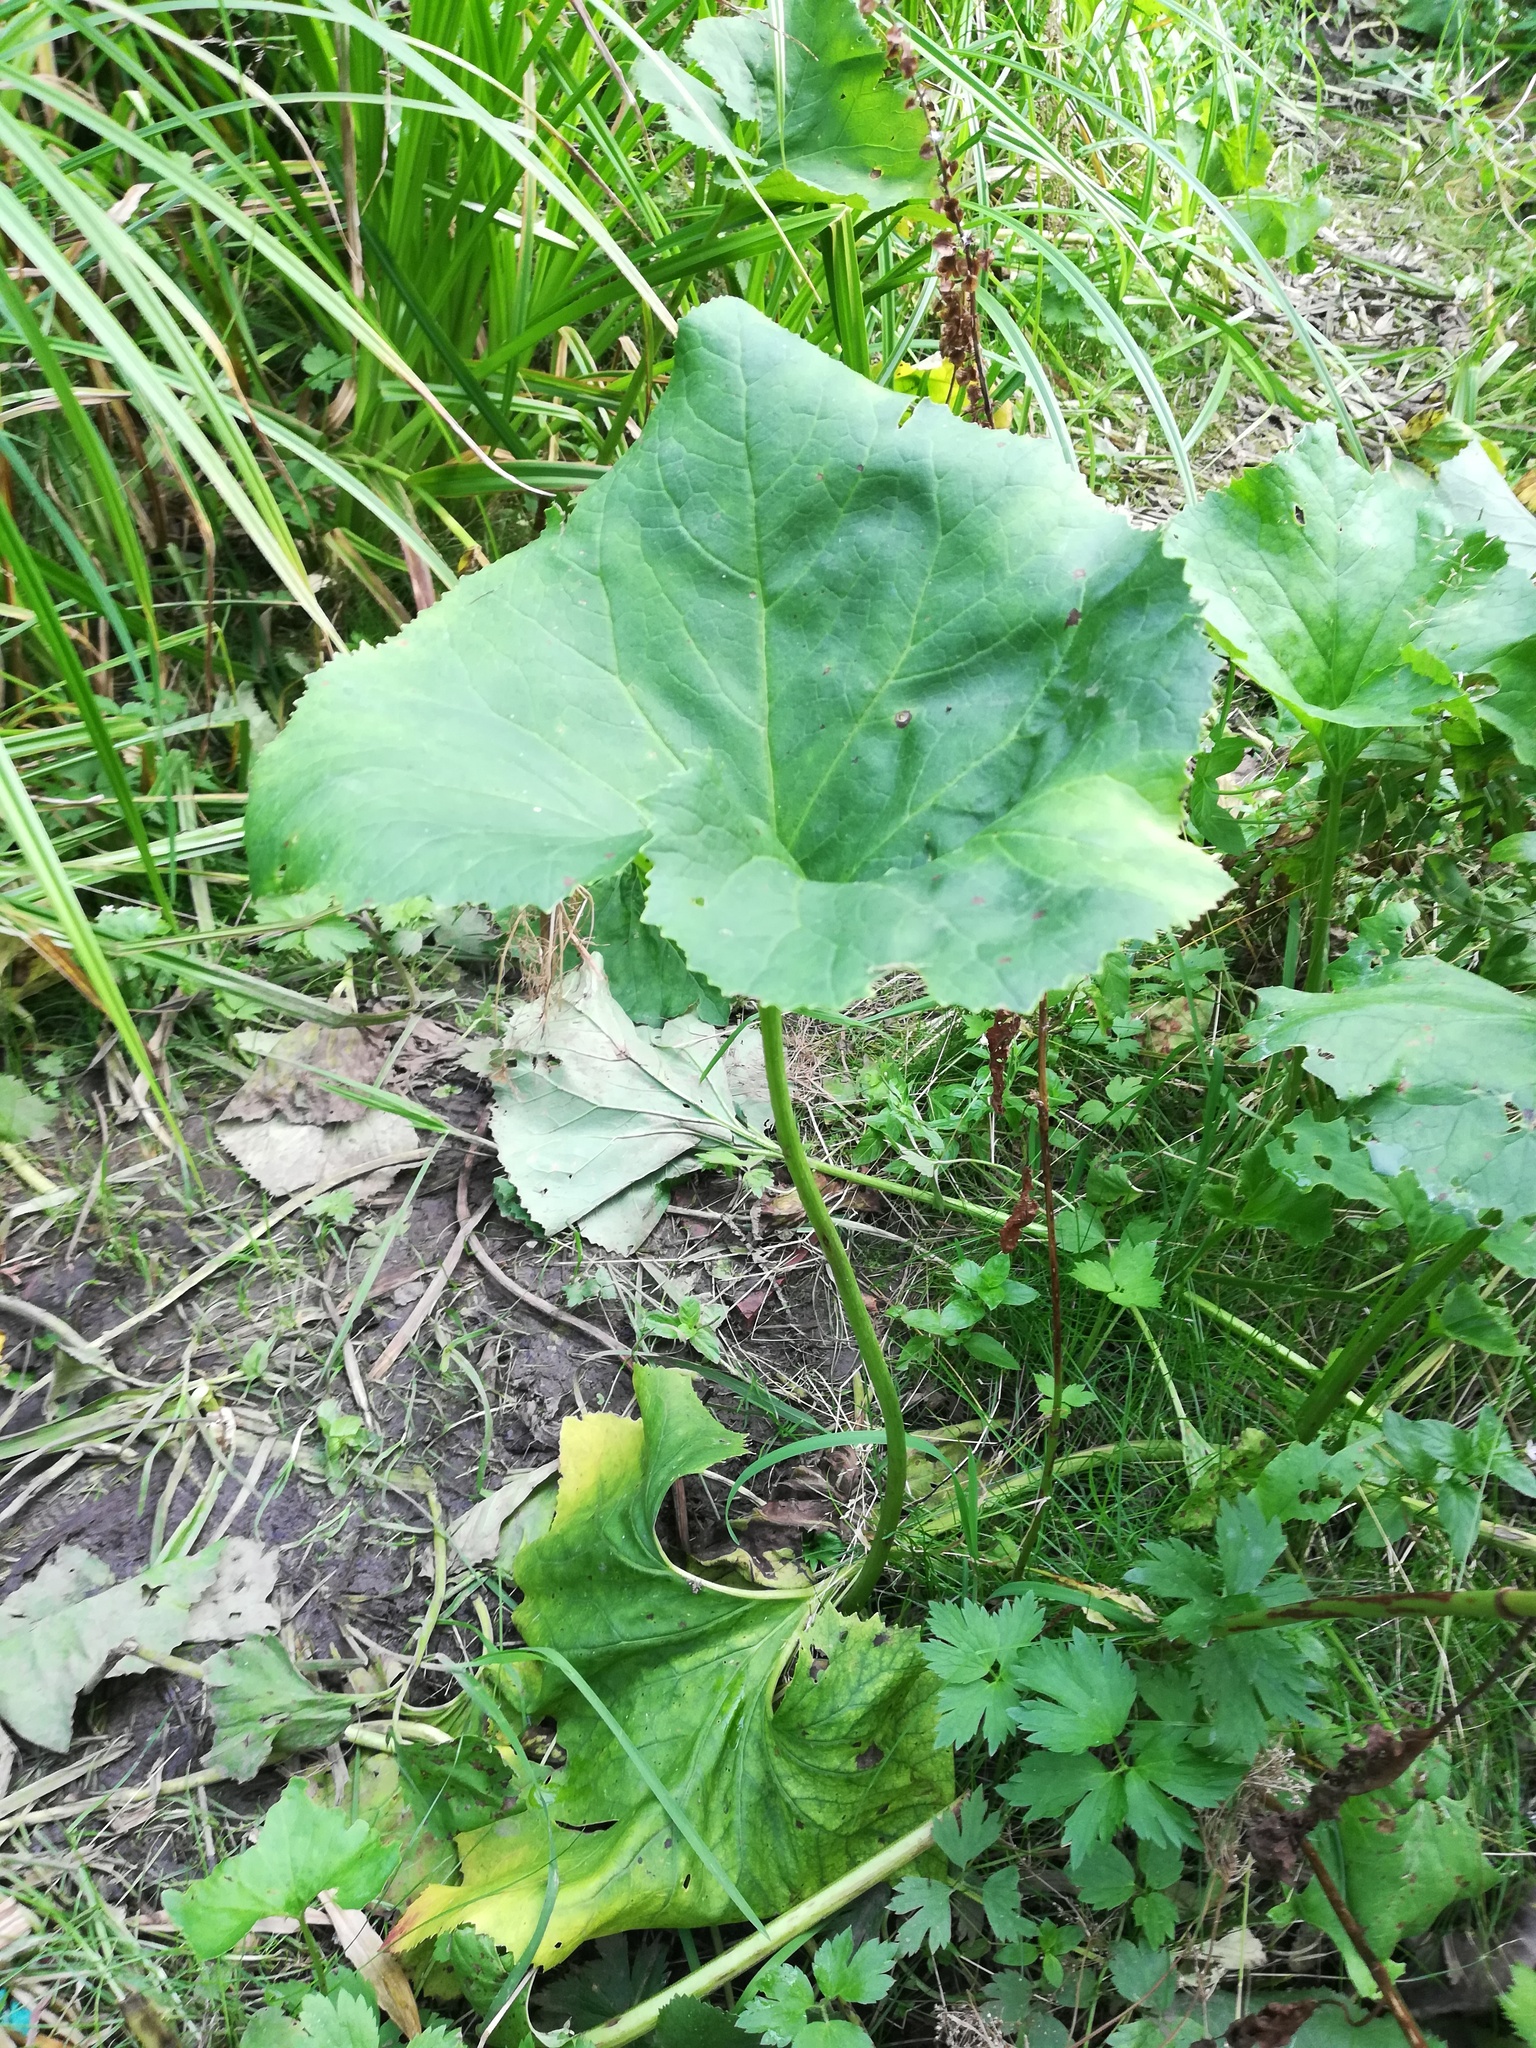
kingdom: Plantae
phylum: Tracheophyta
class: Magnoliopsida
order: Asterales
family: Asteraceae
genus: Petasites
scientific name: Petasites hybridus
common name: Butterbur
